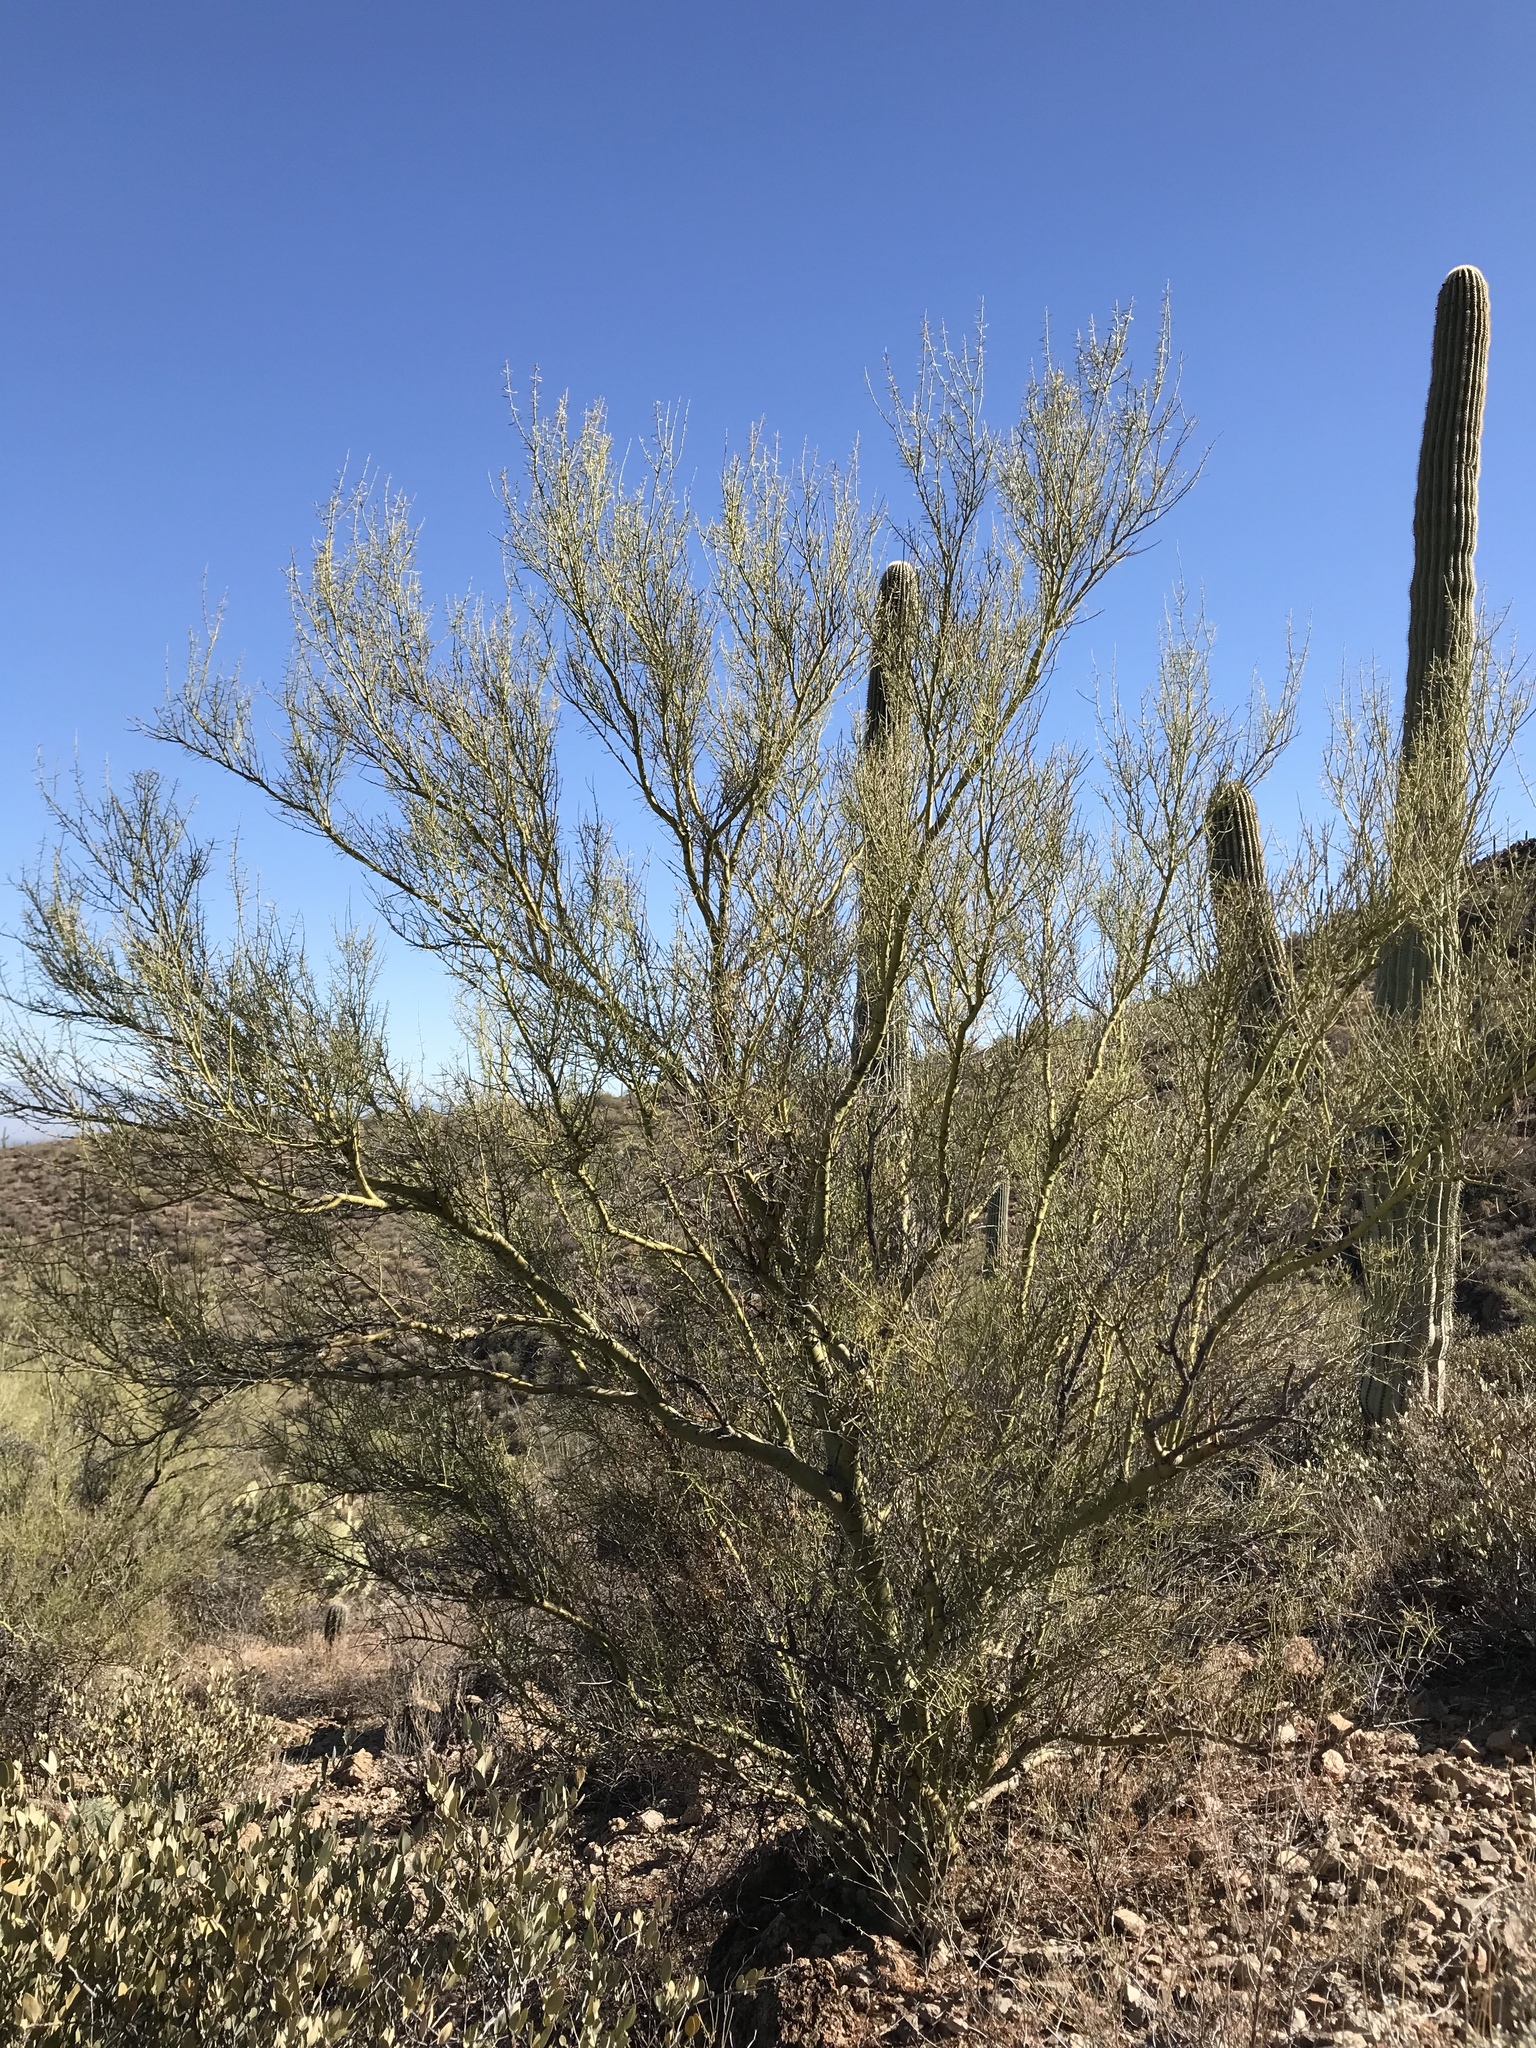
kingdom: Plantae
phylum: Tracheophyta
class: Magnoliopsida
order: Fabales
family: Fabaceae
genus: Parkinsonia
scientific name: Parkinsonia microphylla
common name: Yellow paloverde
